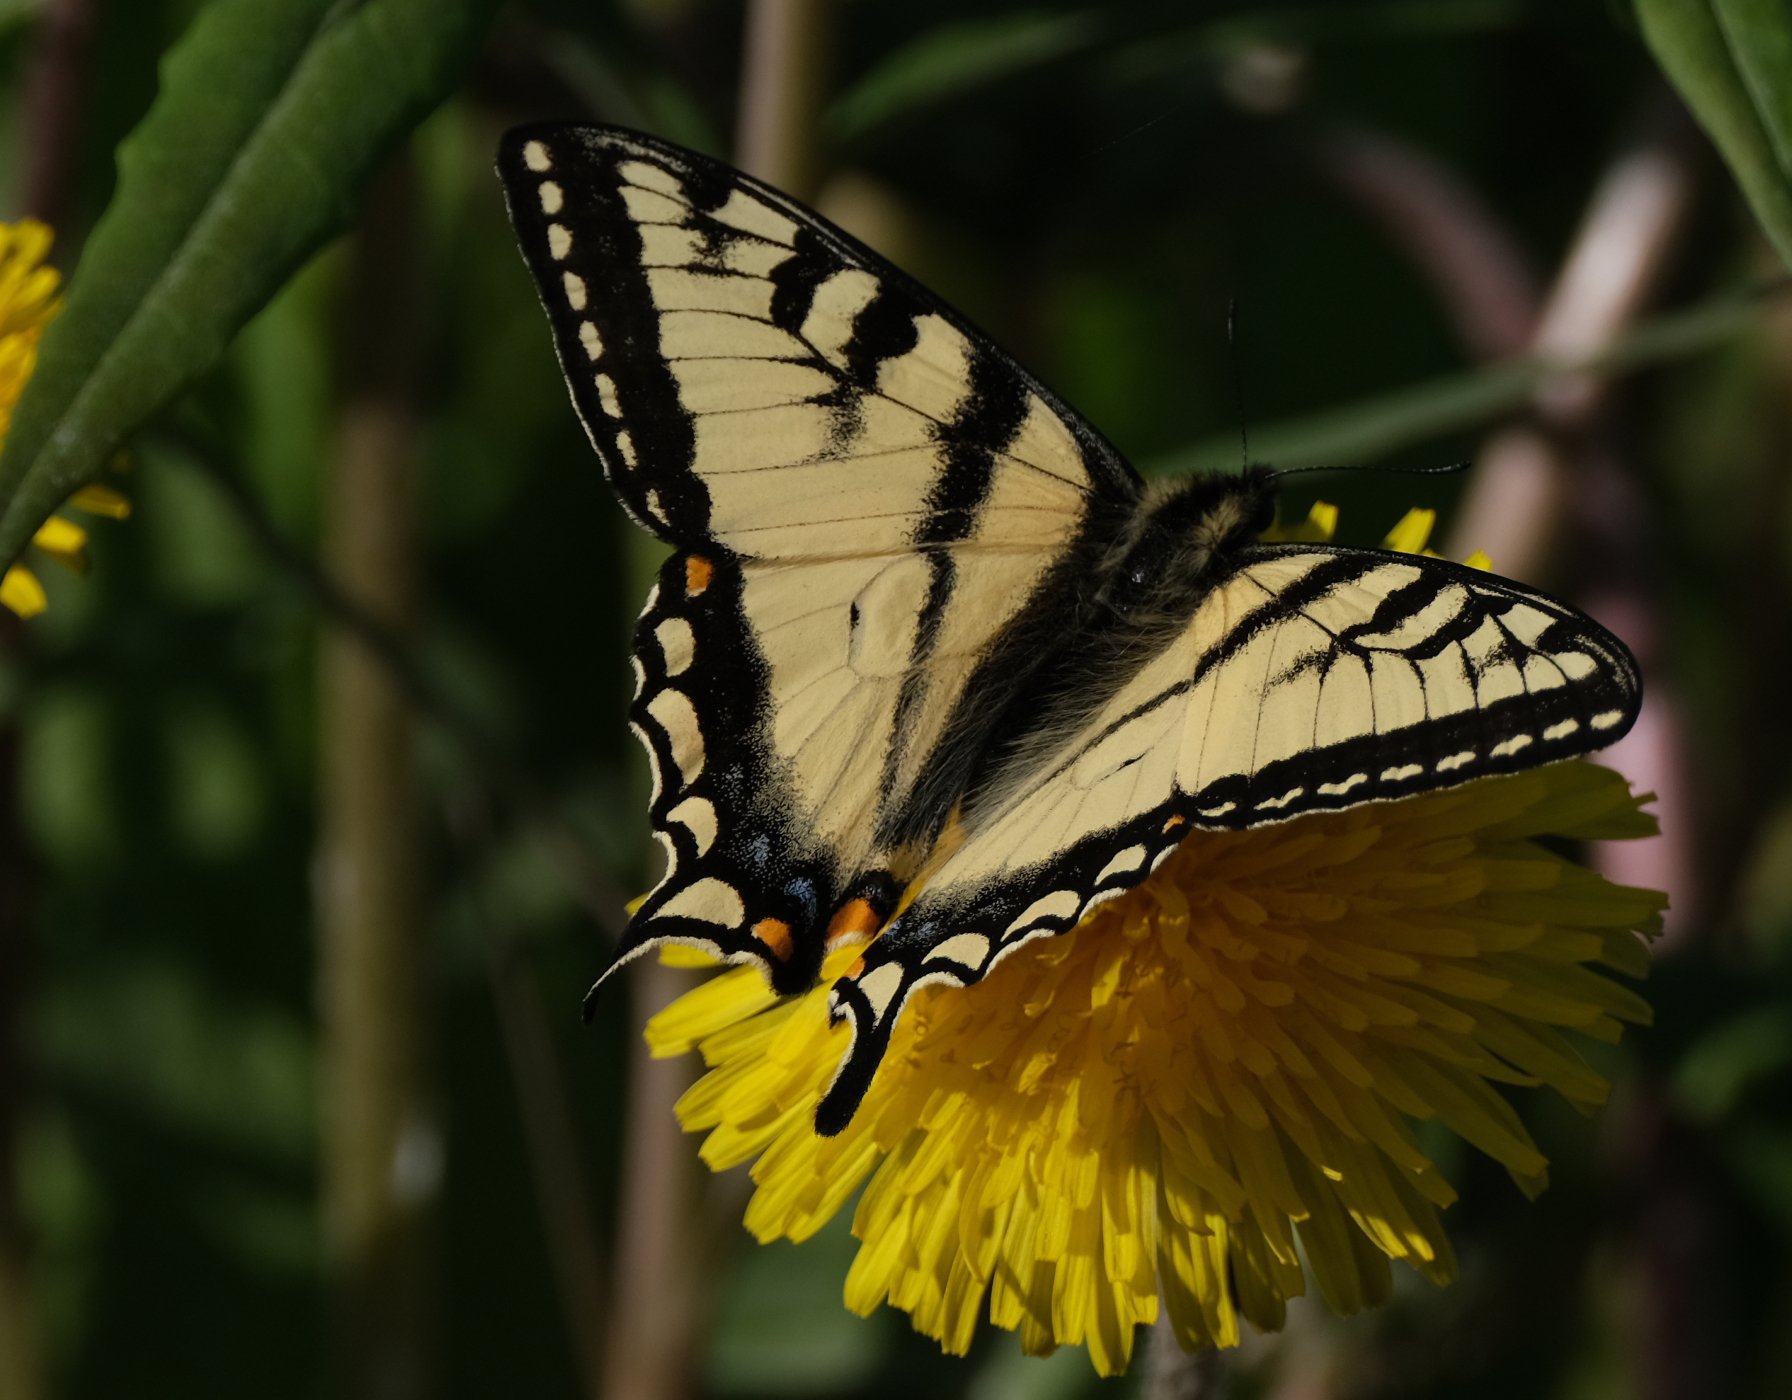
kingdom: Animalia
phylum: Arthropoda
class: Insecta
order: Lepidoptera
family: Papilionidae
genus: Papilio
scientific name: Papilio canadensis
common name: Canadian tiger swallowtail
